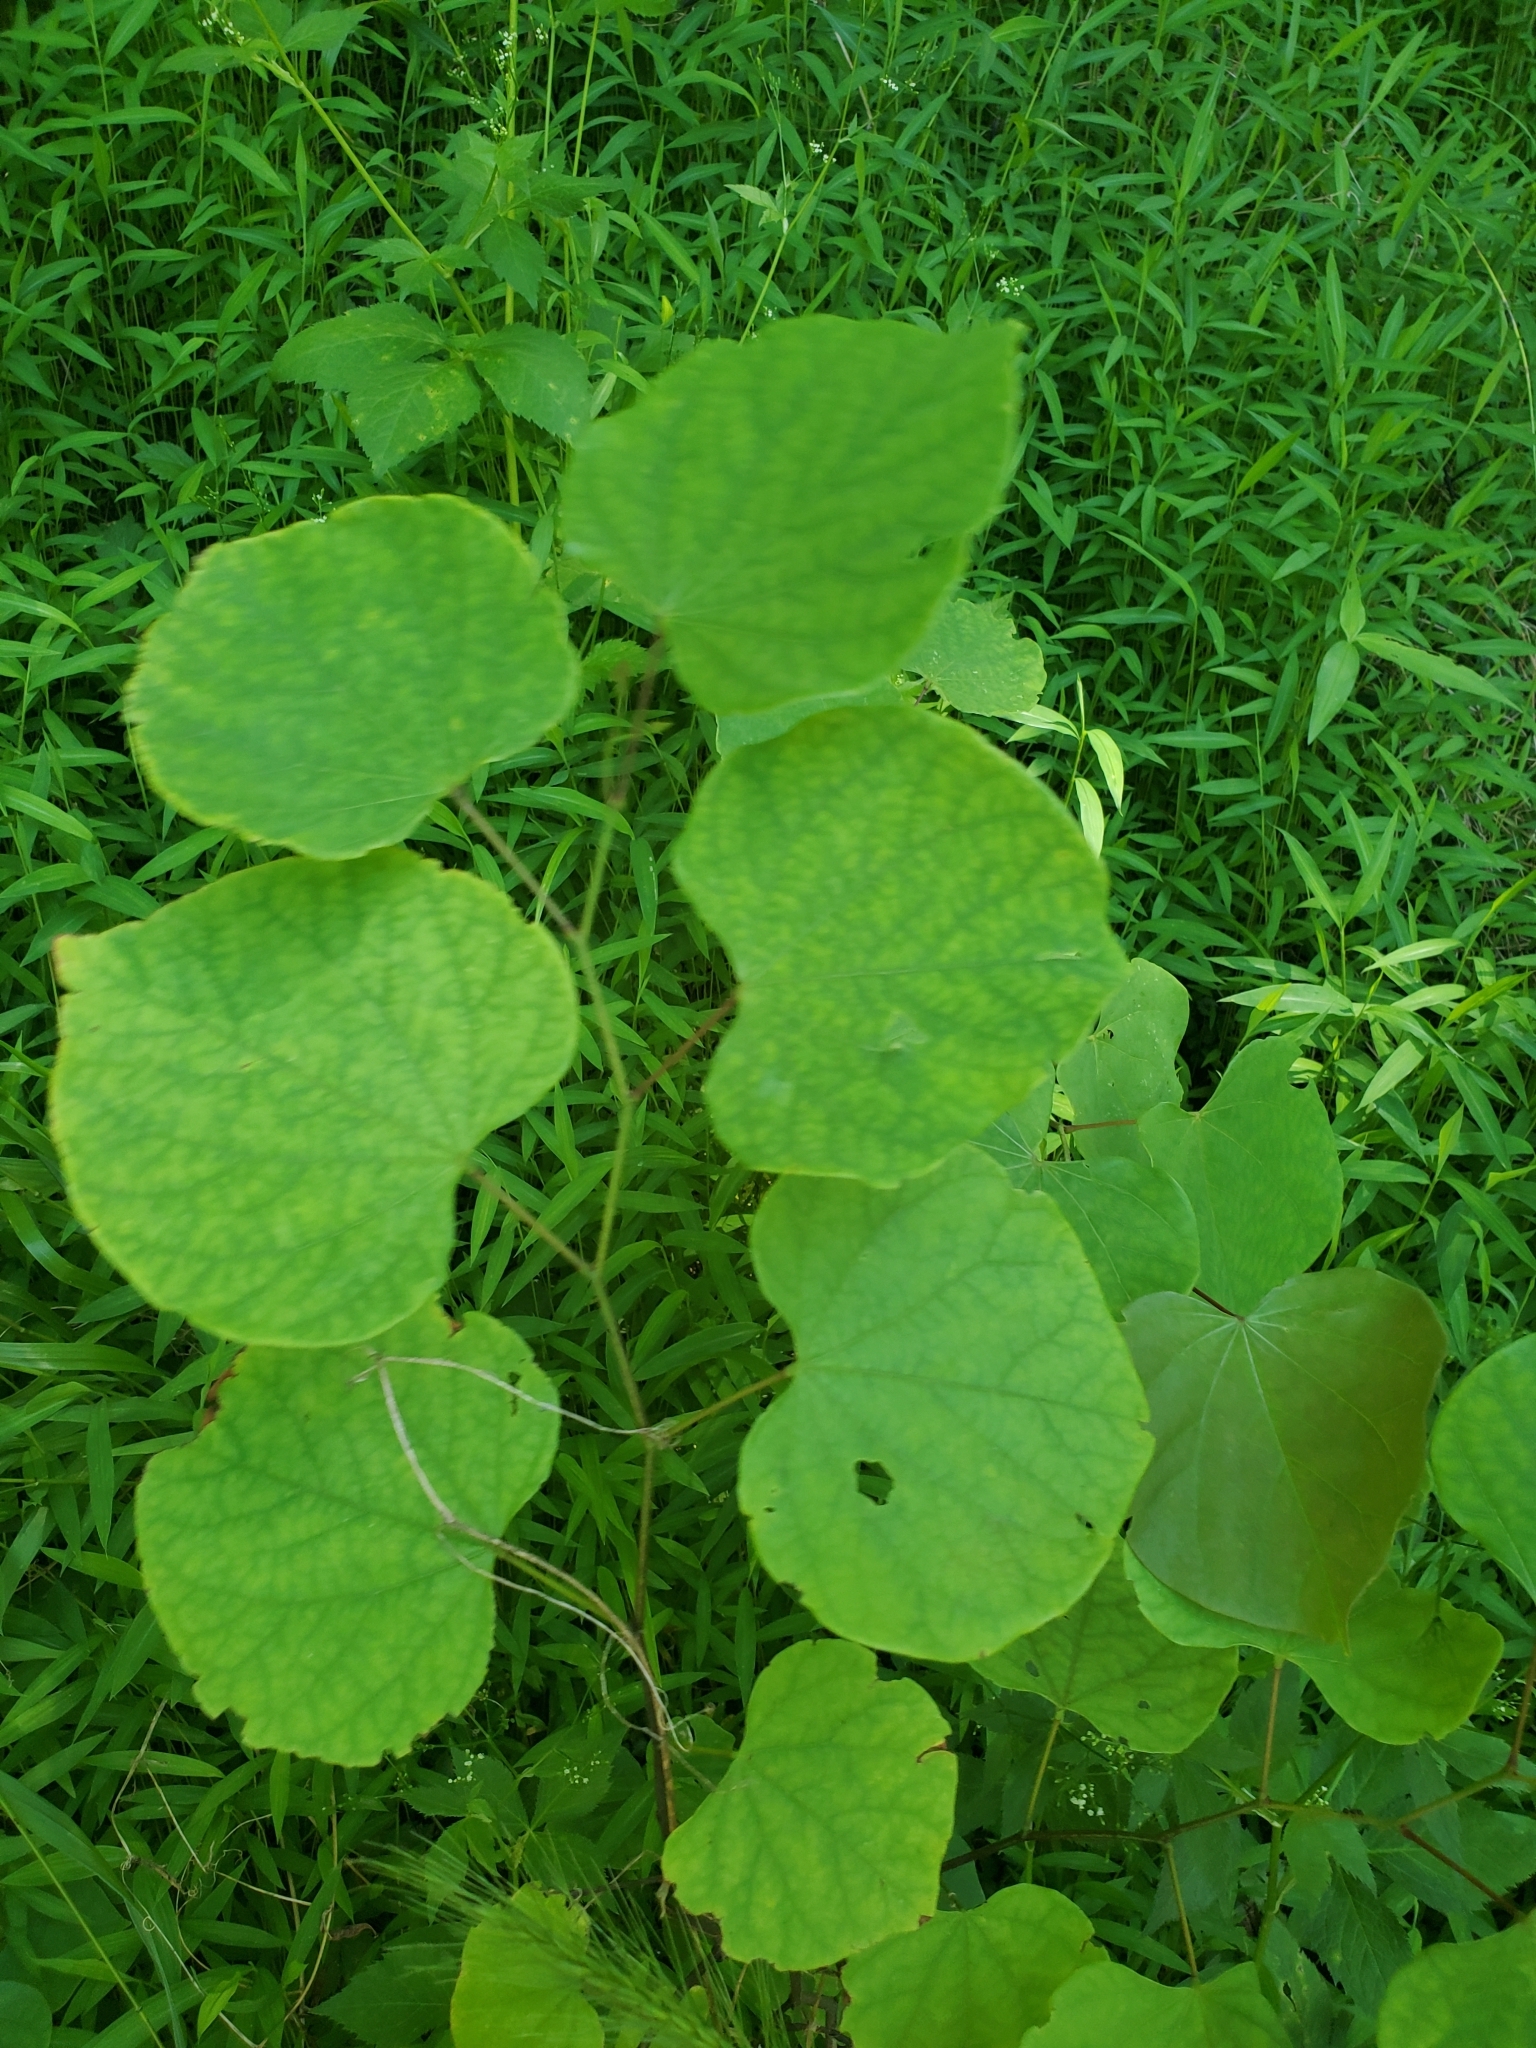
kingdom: Plantae
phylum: Tracheophyta
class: Magnoliopsida
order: Fabales
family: Fabaceae
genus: Cercis
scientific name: Cercis canadensis
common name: Eastern redbud
